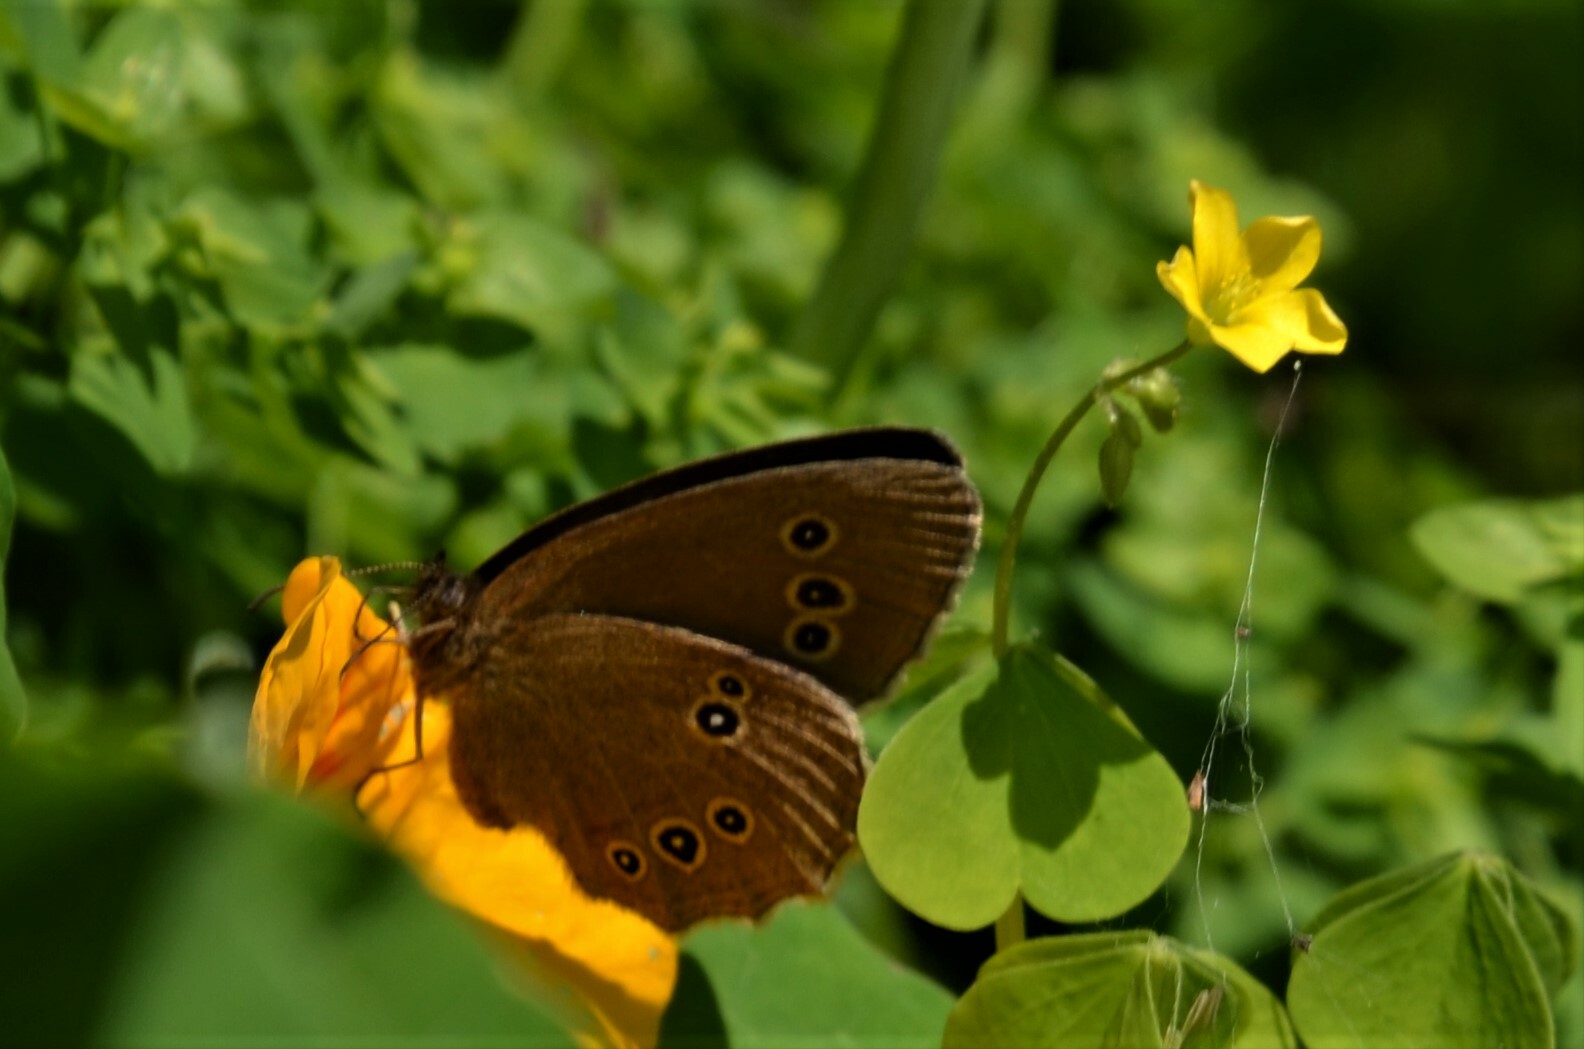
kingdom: Animalia
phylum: Arthropoda
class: Insecta
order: Lepidoptera
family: Nymphalidae
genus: Aphantopus
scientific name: Aphantopus hyperantus
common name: Ringlet
